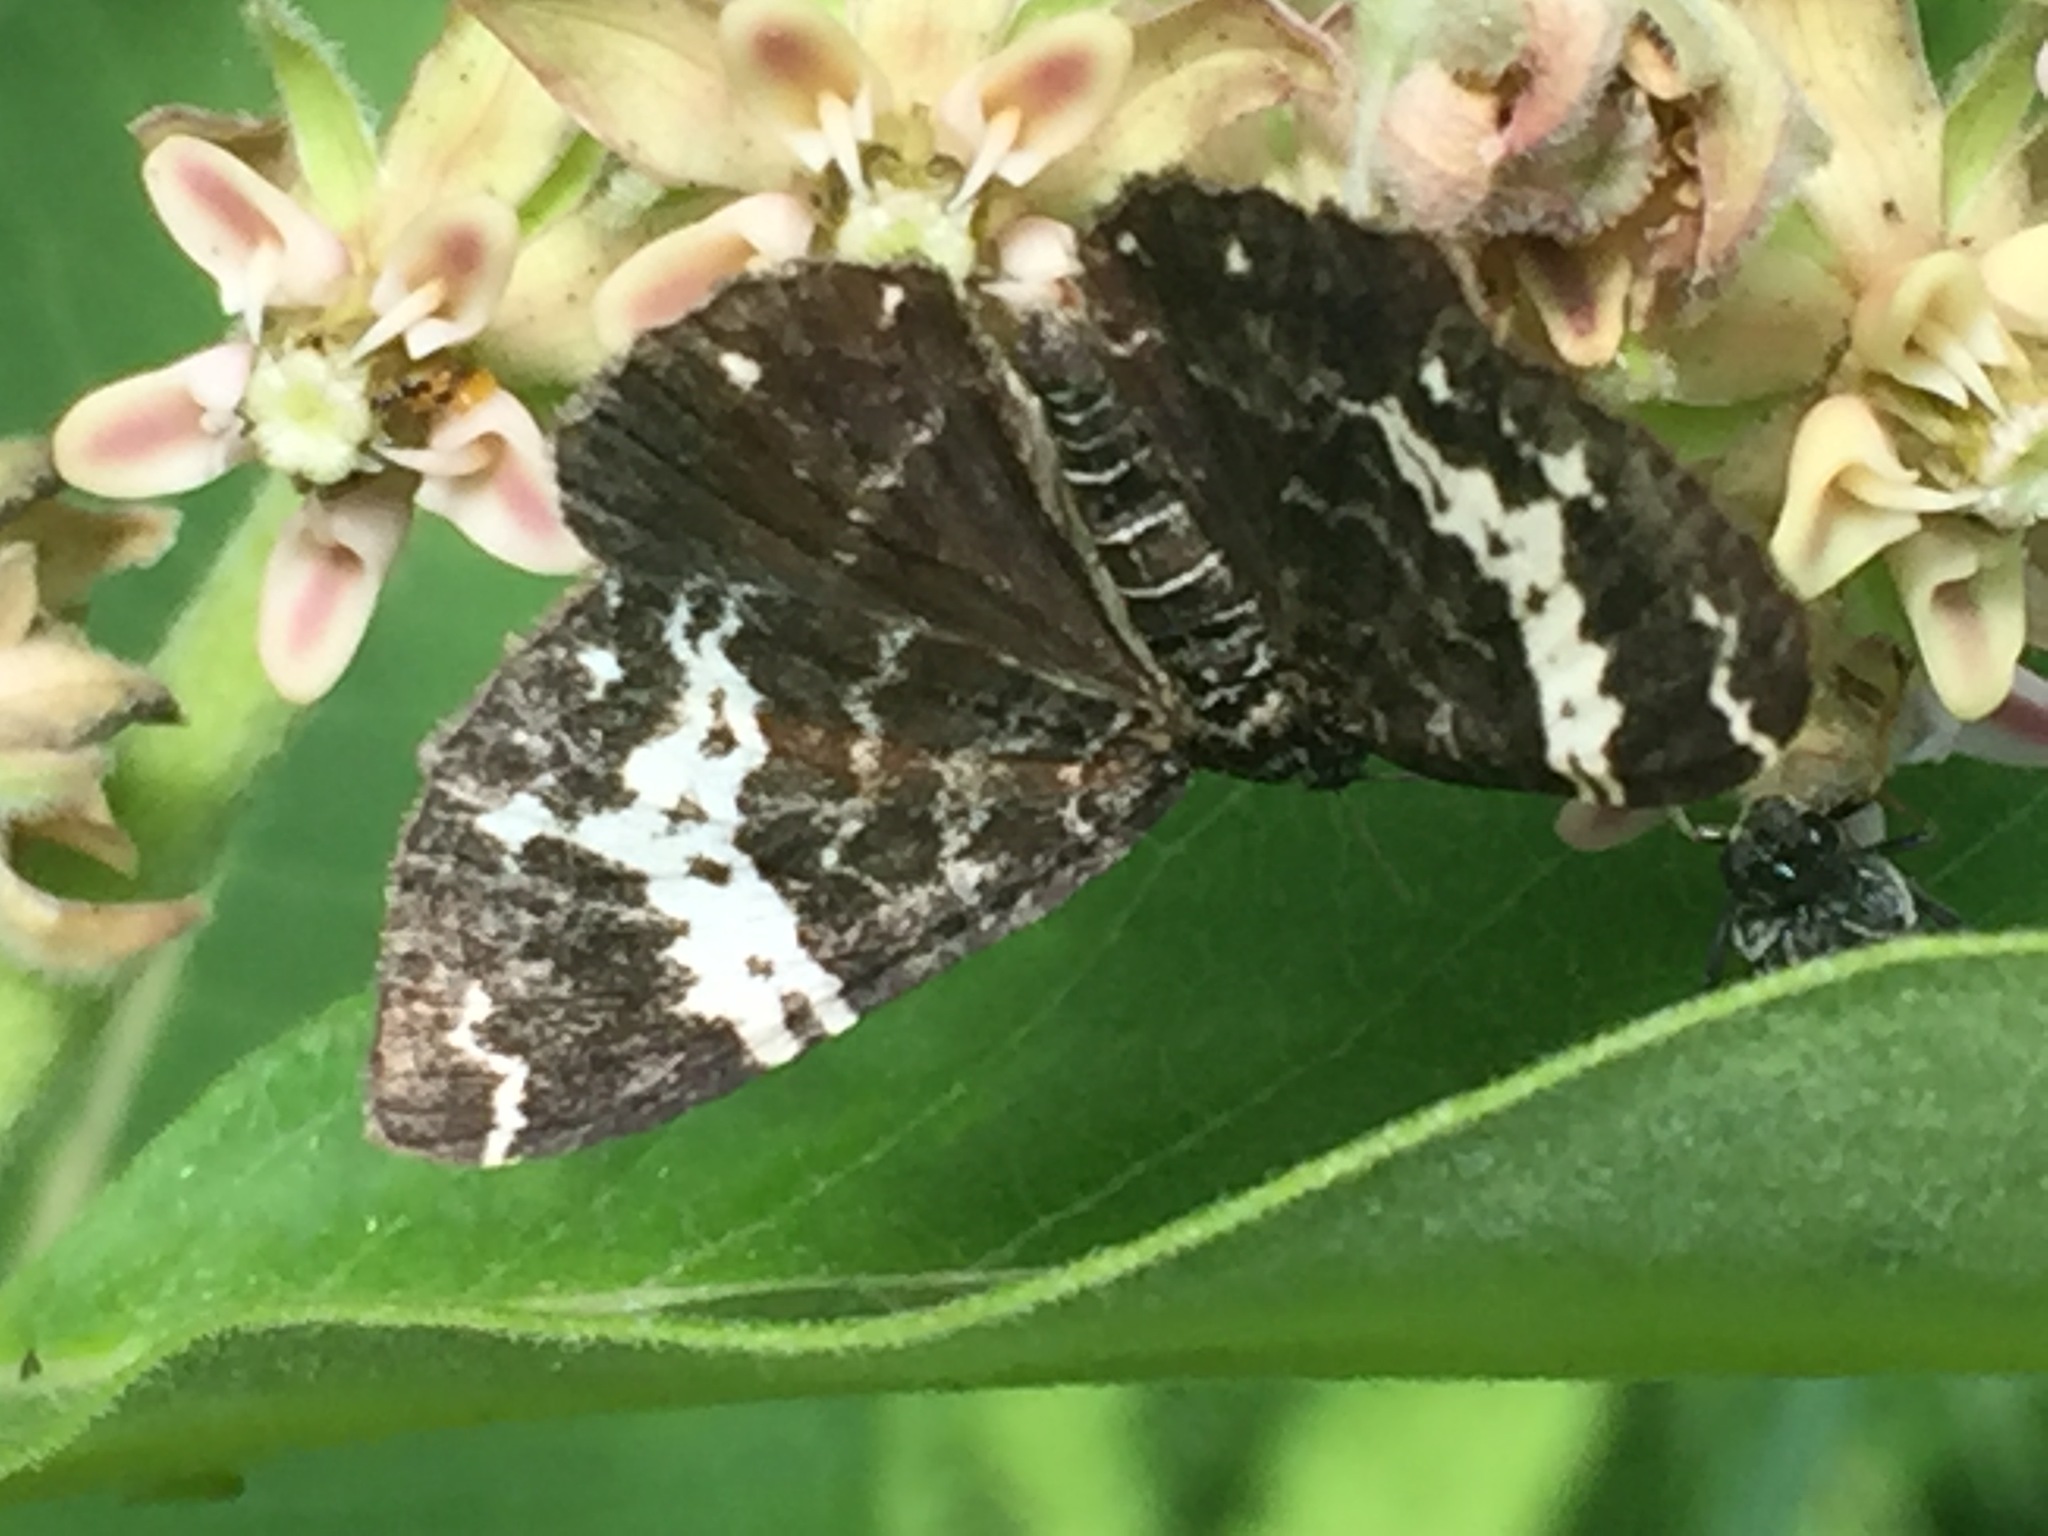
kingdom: Animalia
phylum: Arthropoda
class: Insecta
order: Lepidoptera
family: Geometridae
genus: Rheumaptera
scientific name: Rheumaptera
